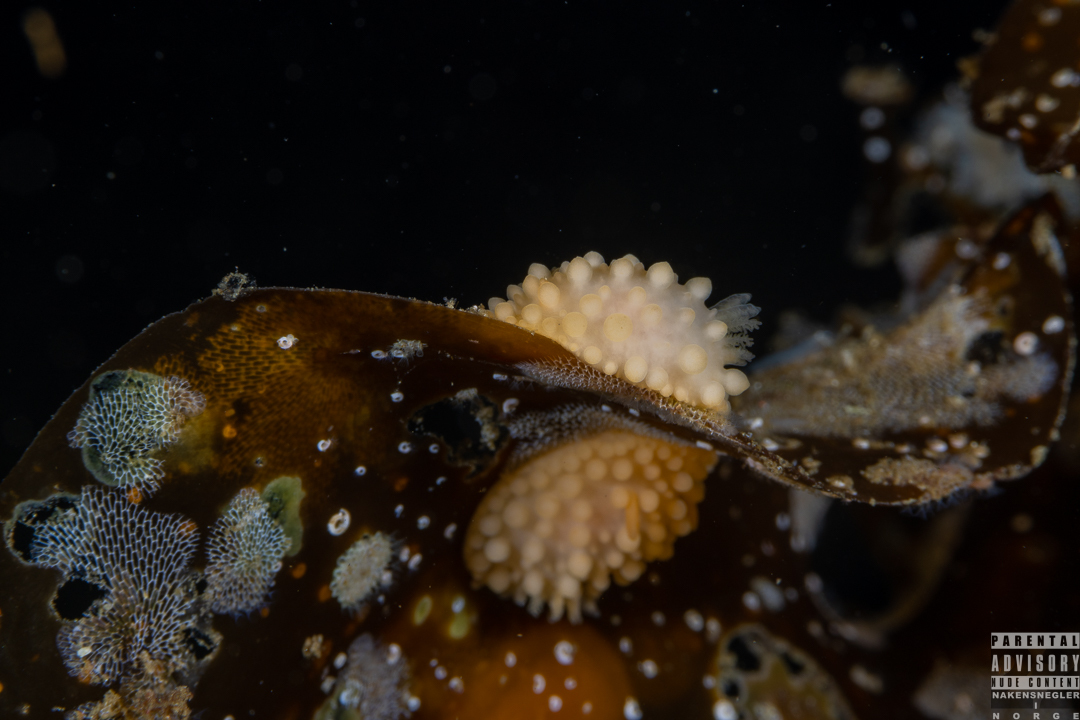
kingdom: Animalia
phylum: Mollusca
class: Gastropoda
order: Nudibranchia
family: Onchidorididae
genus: Adalaria
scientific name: Adalaria loveni
